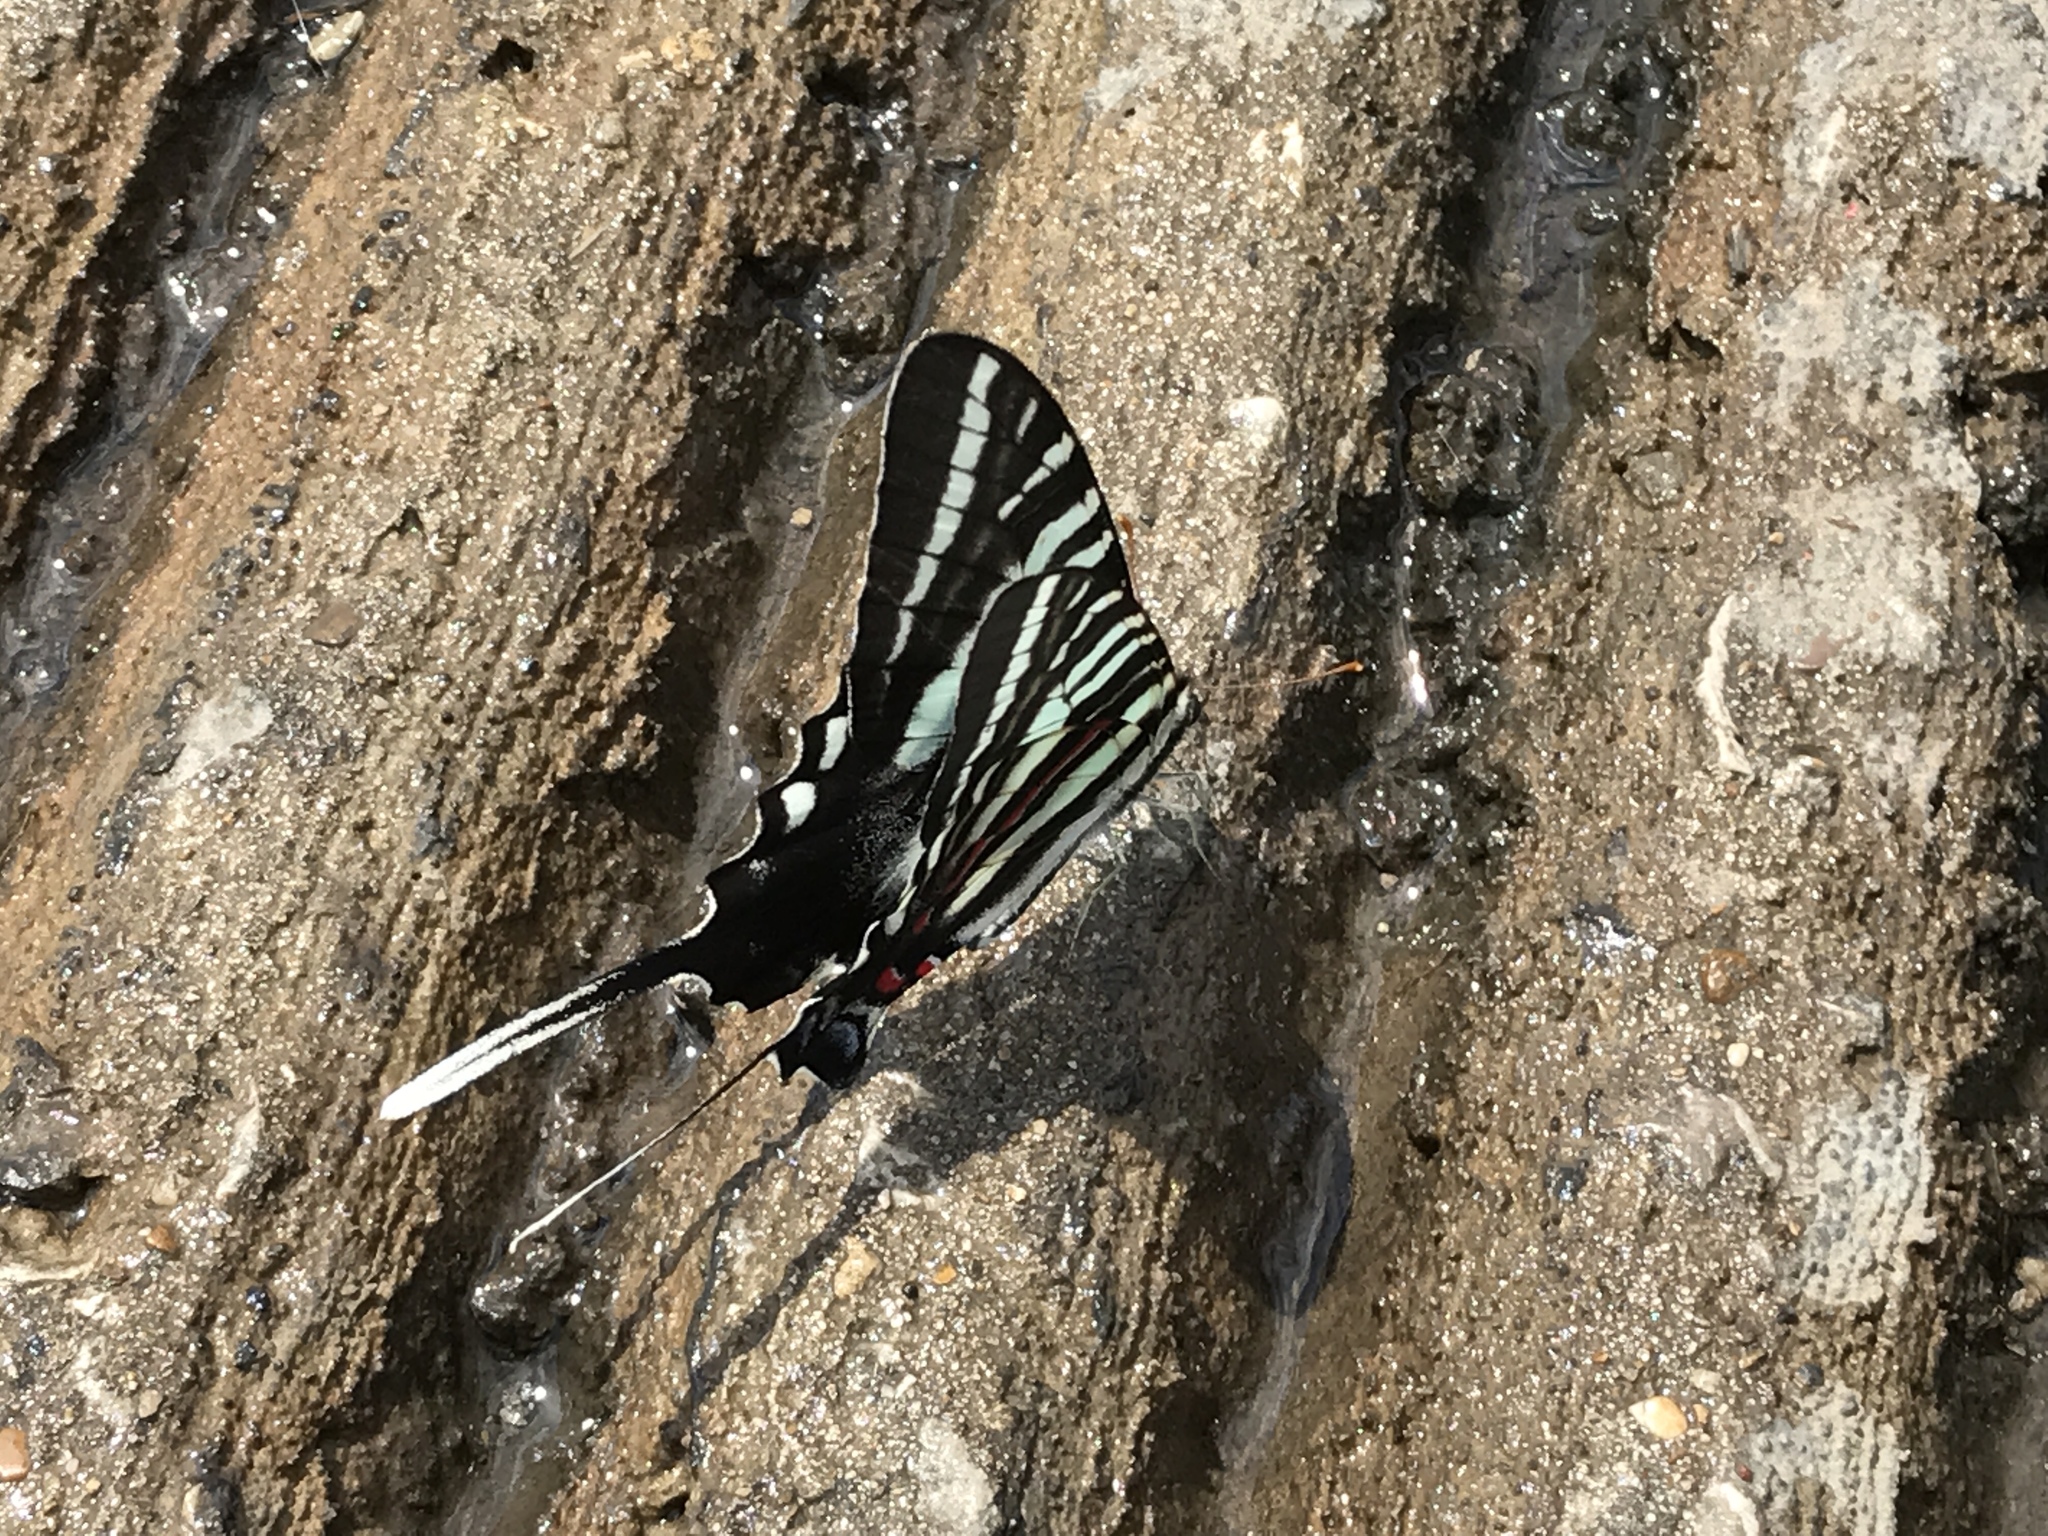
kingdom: Animalia
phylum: Arthropoda
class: Insecta
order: Lepidoptera
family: Papilionidae
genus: Protographium
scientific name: Protographium marcellus
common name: Zebra swallowtail
